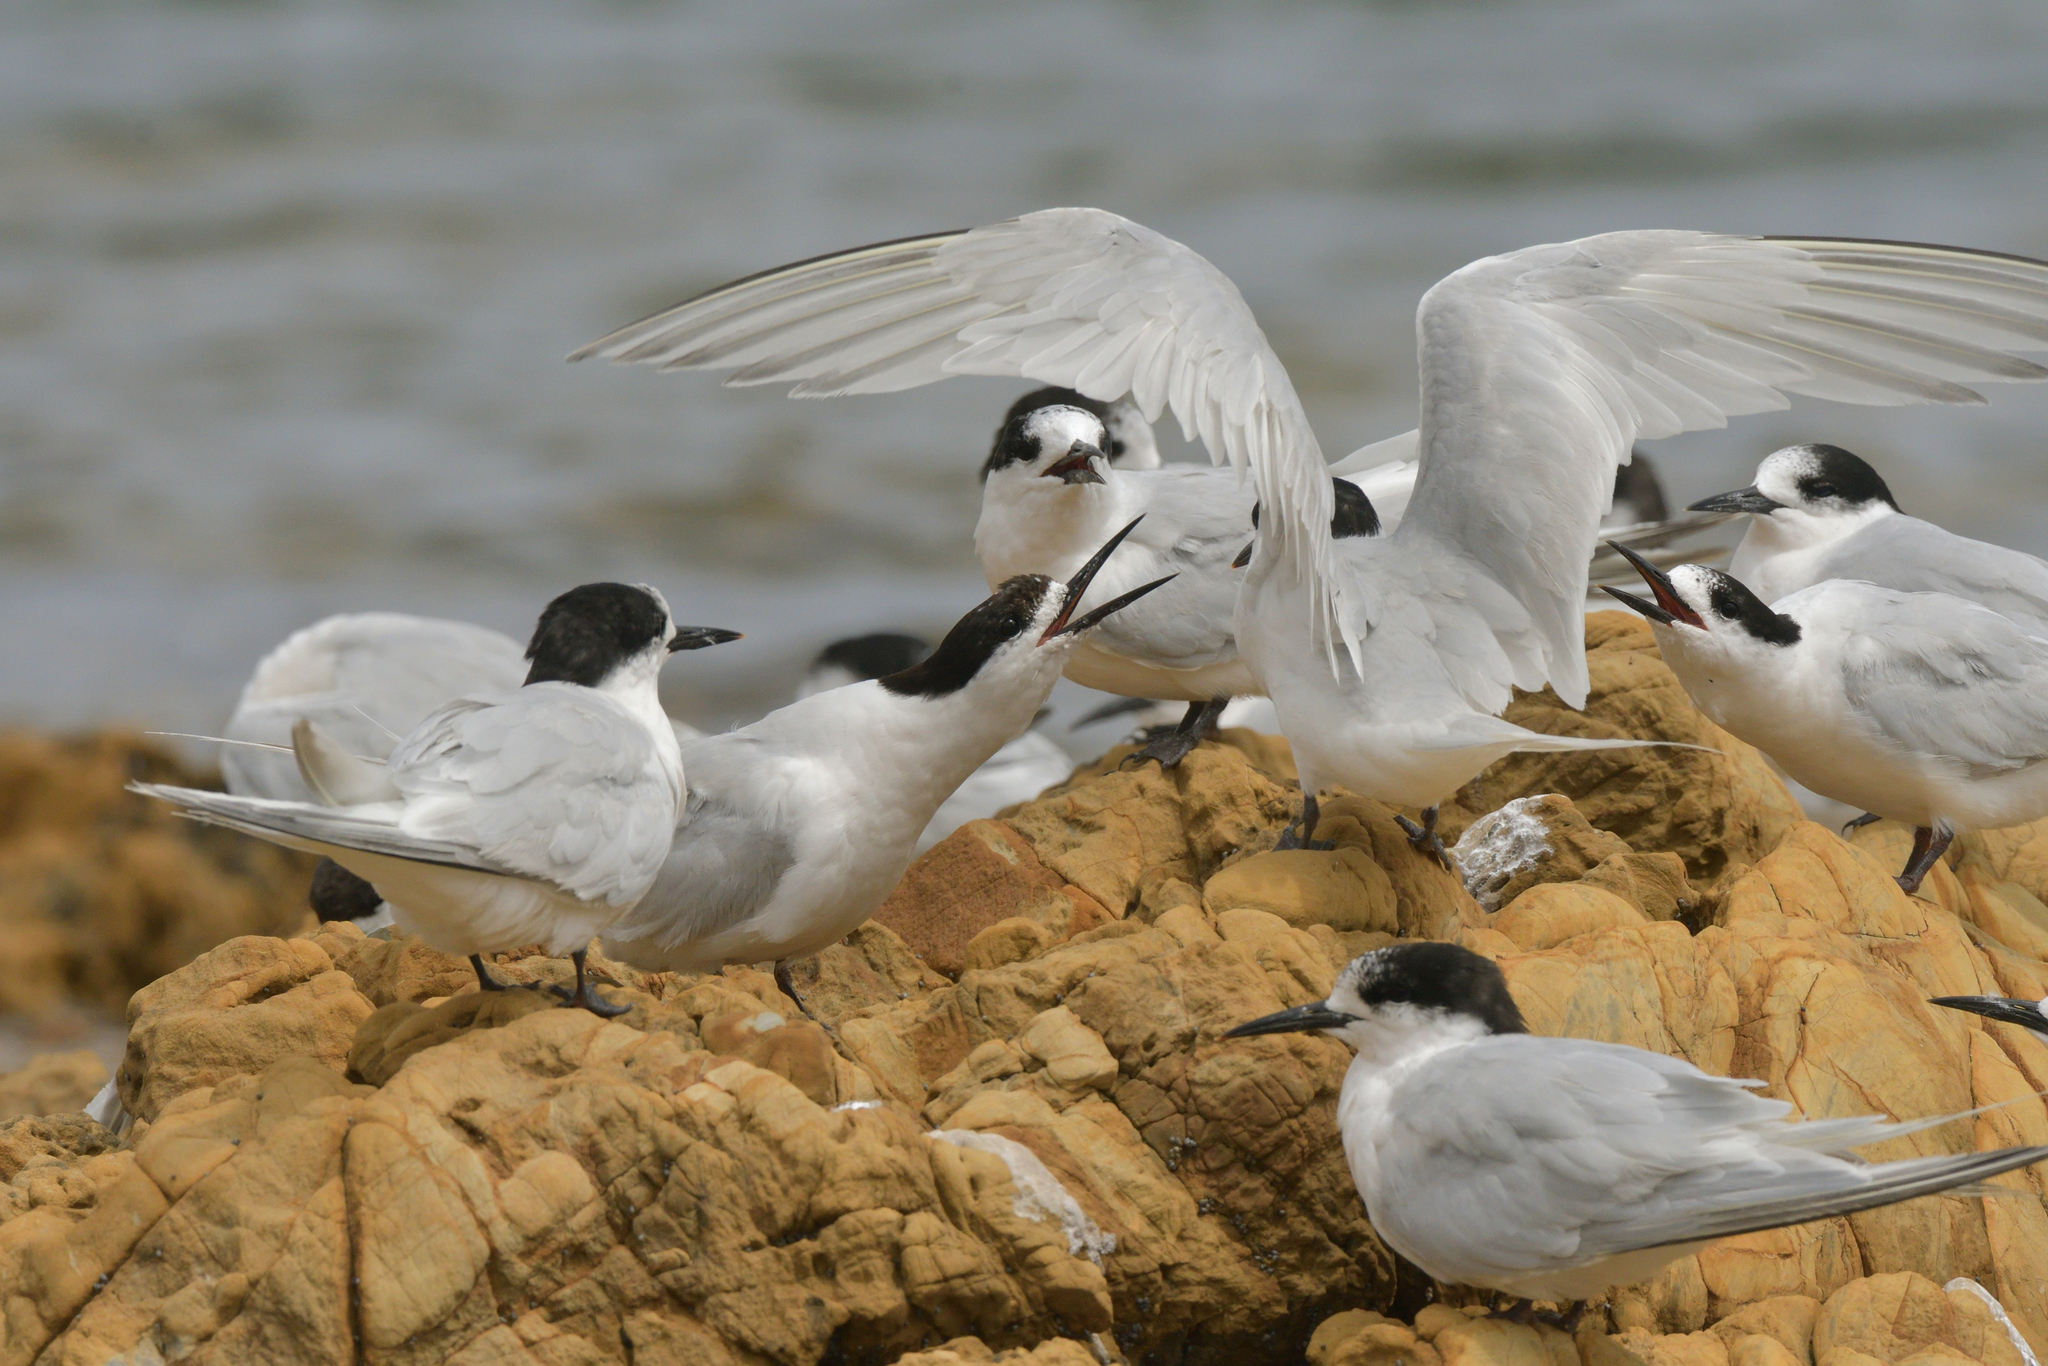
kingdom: Animalia
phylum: Chordata
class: Aves
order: Charadriiformes
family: Laridae
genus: Sterna
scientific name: Sterna striata
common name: White-fronted tern
